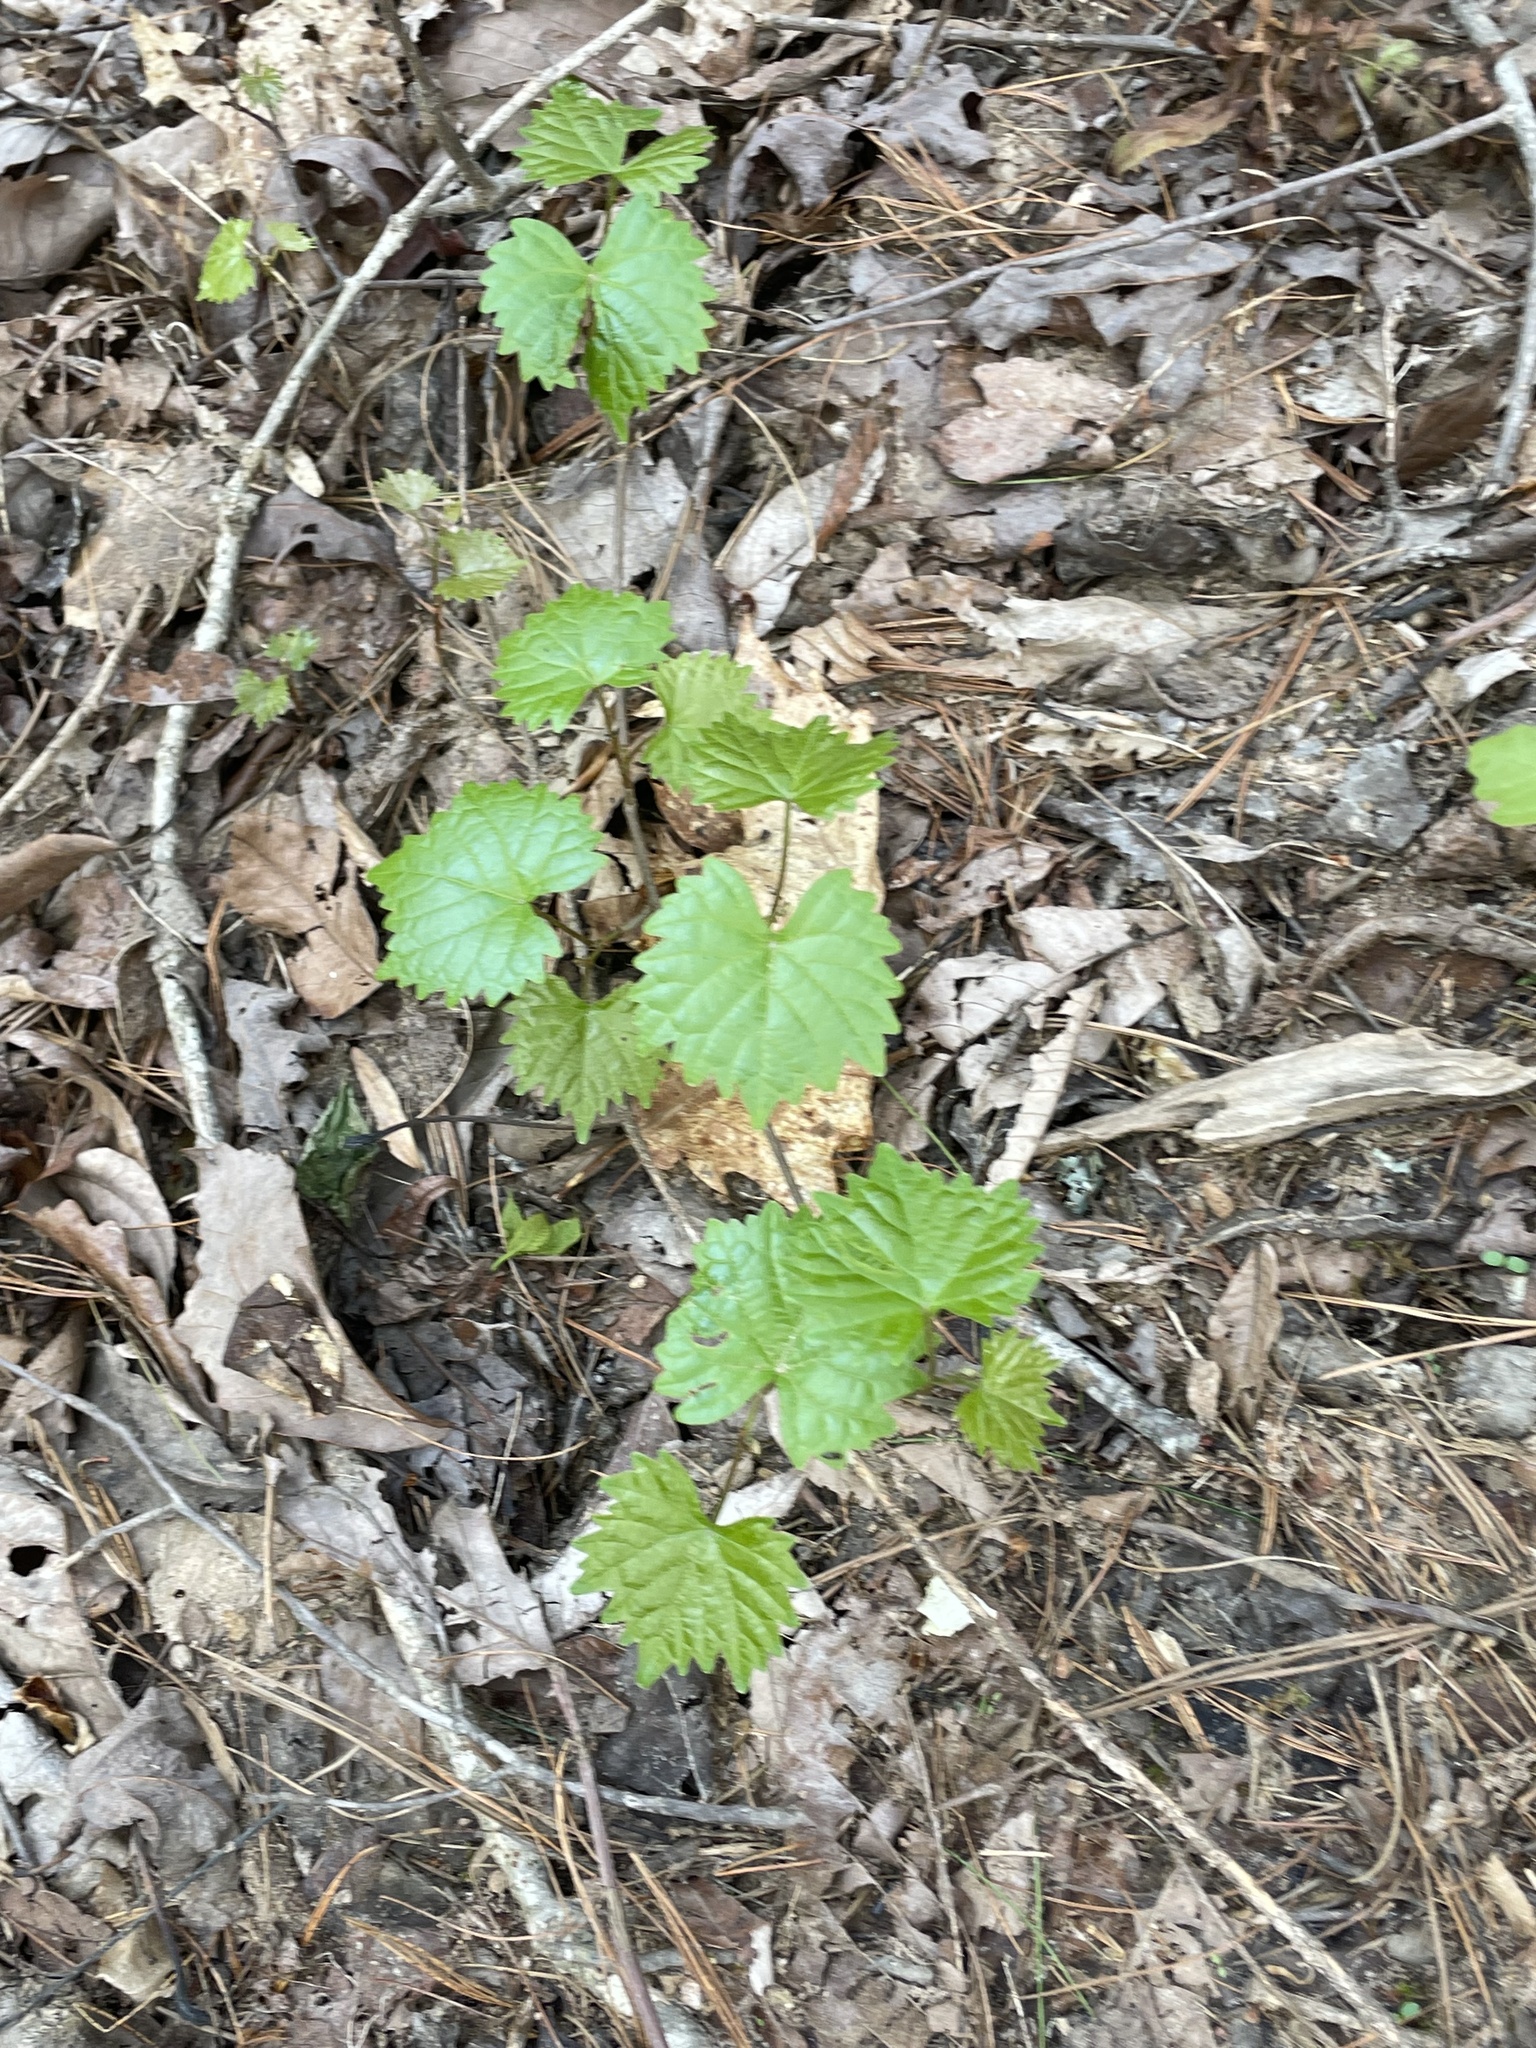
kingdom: Plantae
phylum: Tracheophyta
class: Magnoliopsida
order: Vitales
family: Vitaceae
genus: Vitis
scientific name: Vitis rotundifolia
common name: Muscadine grape
